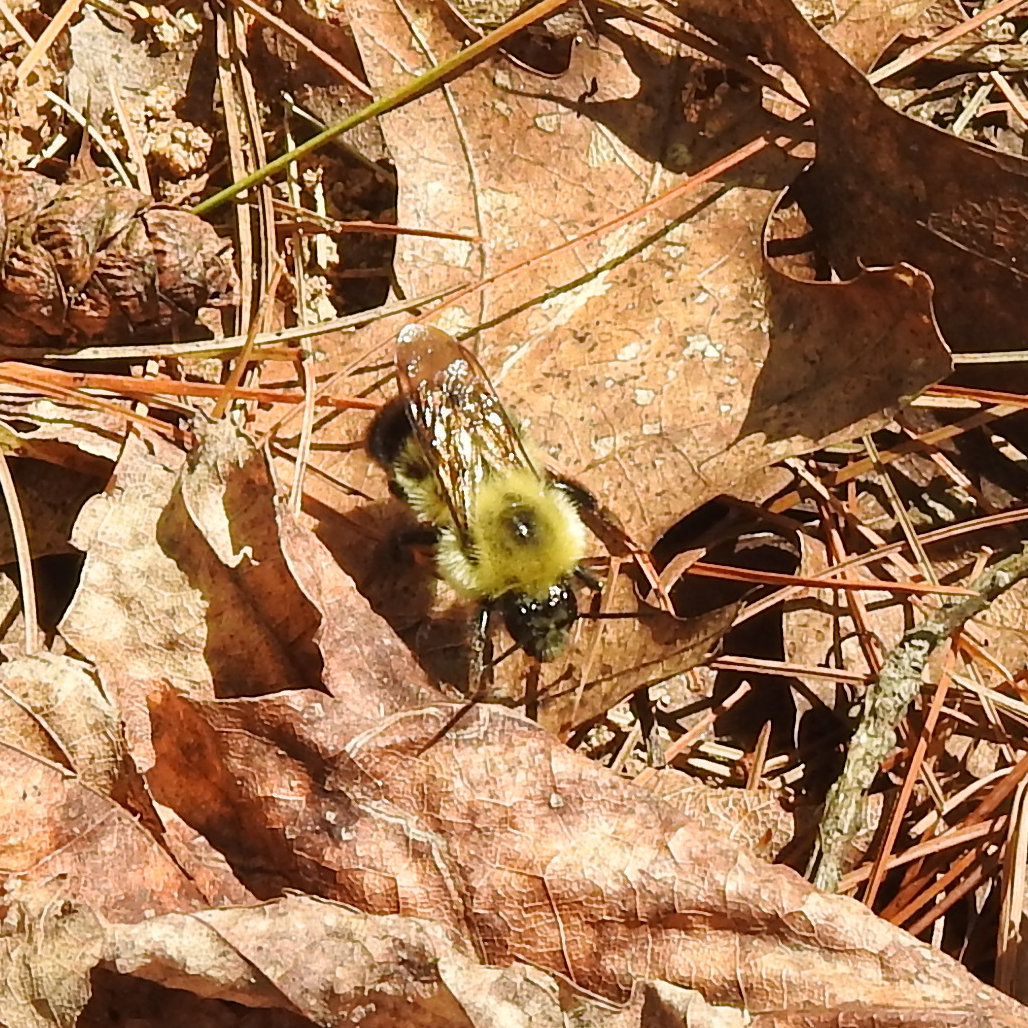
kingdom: Animalia
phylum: Arthropoda
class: Insecta
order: Hymenoptera
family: Apidae
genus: Bombus
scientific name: Bombus bimaculatus
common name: Two-spotted bumble bee
